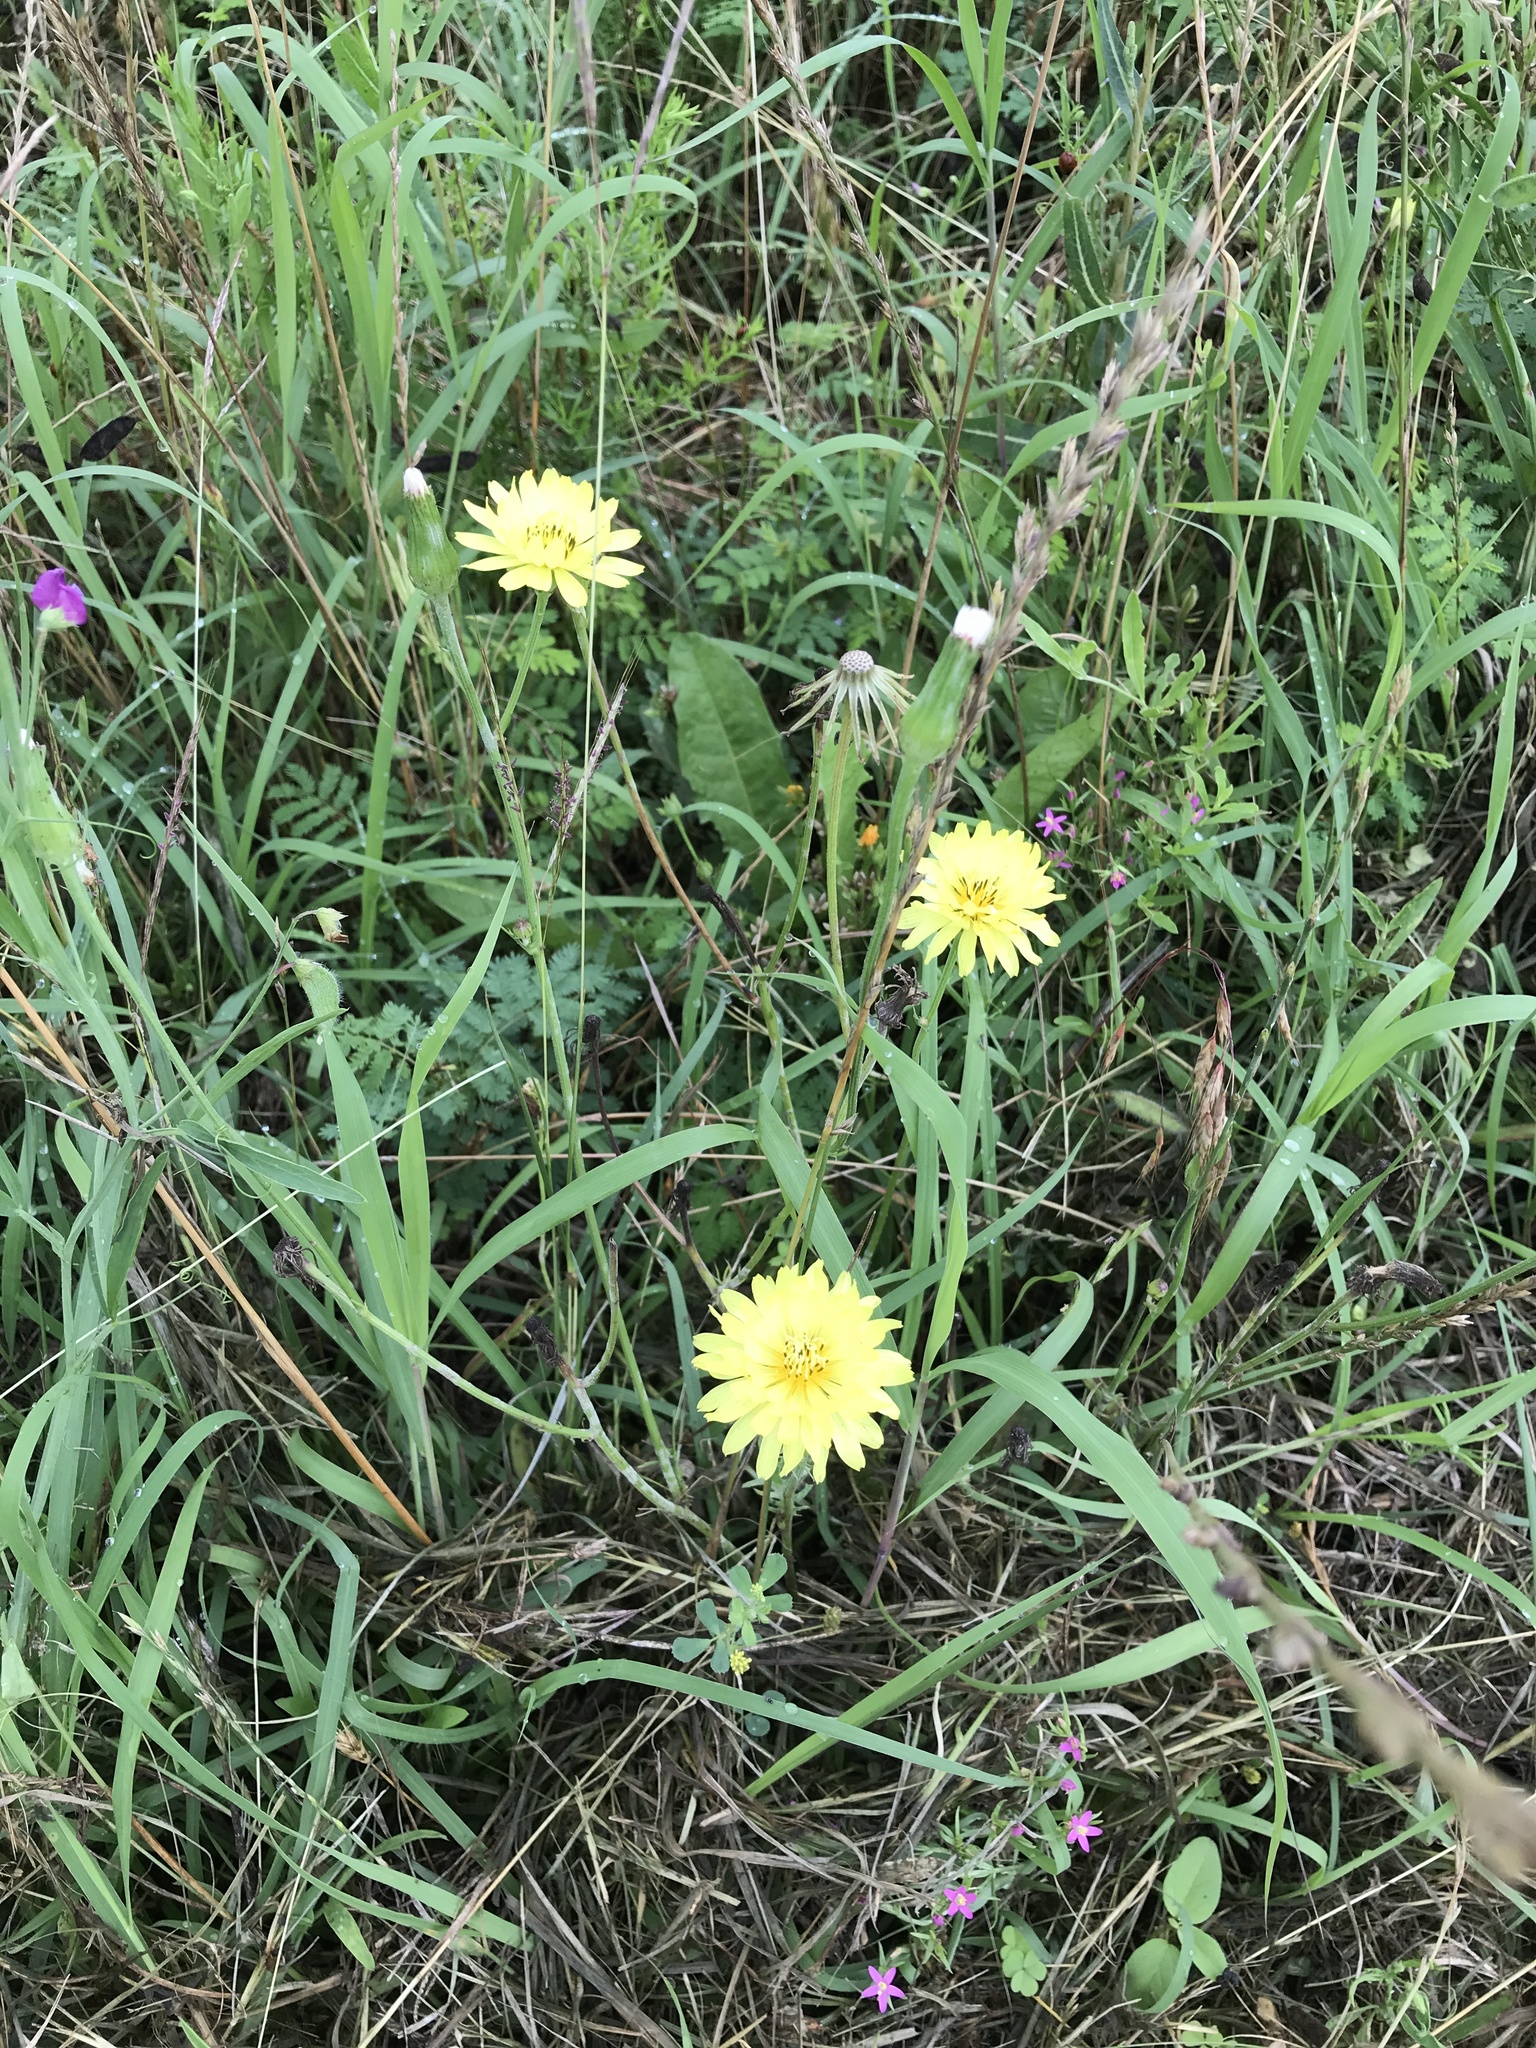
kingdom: Plantae
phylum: Tracheophyta
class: Magnoliopsida
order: Asterales
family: Asteraceae
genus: Pyrrhopappus
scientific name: Pyrrhopappus pauciflorus
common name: Texas false dandelion
